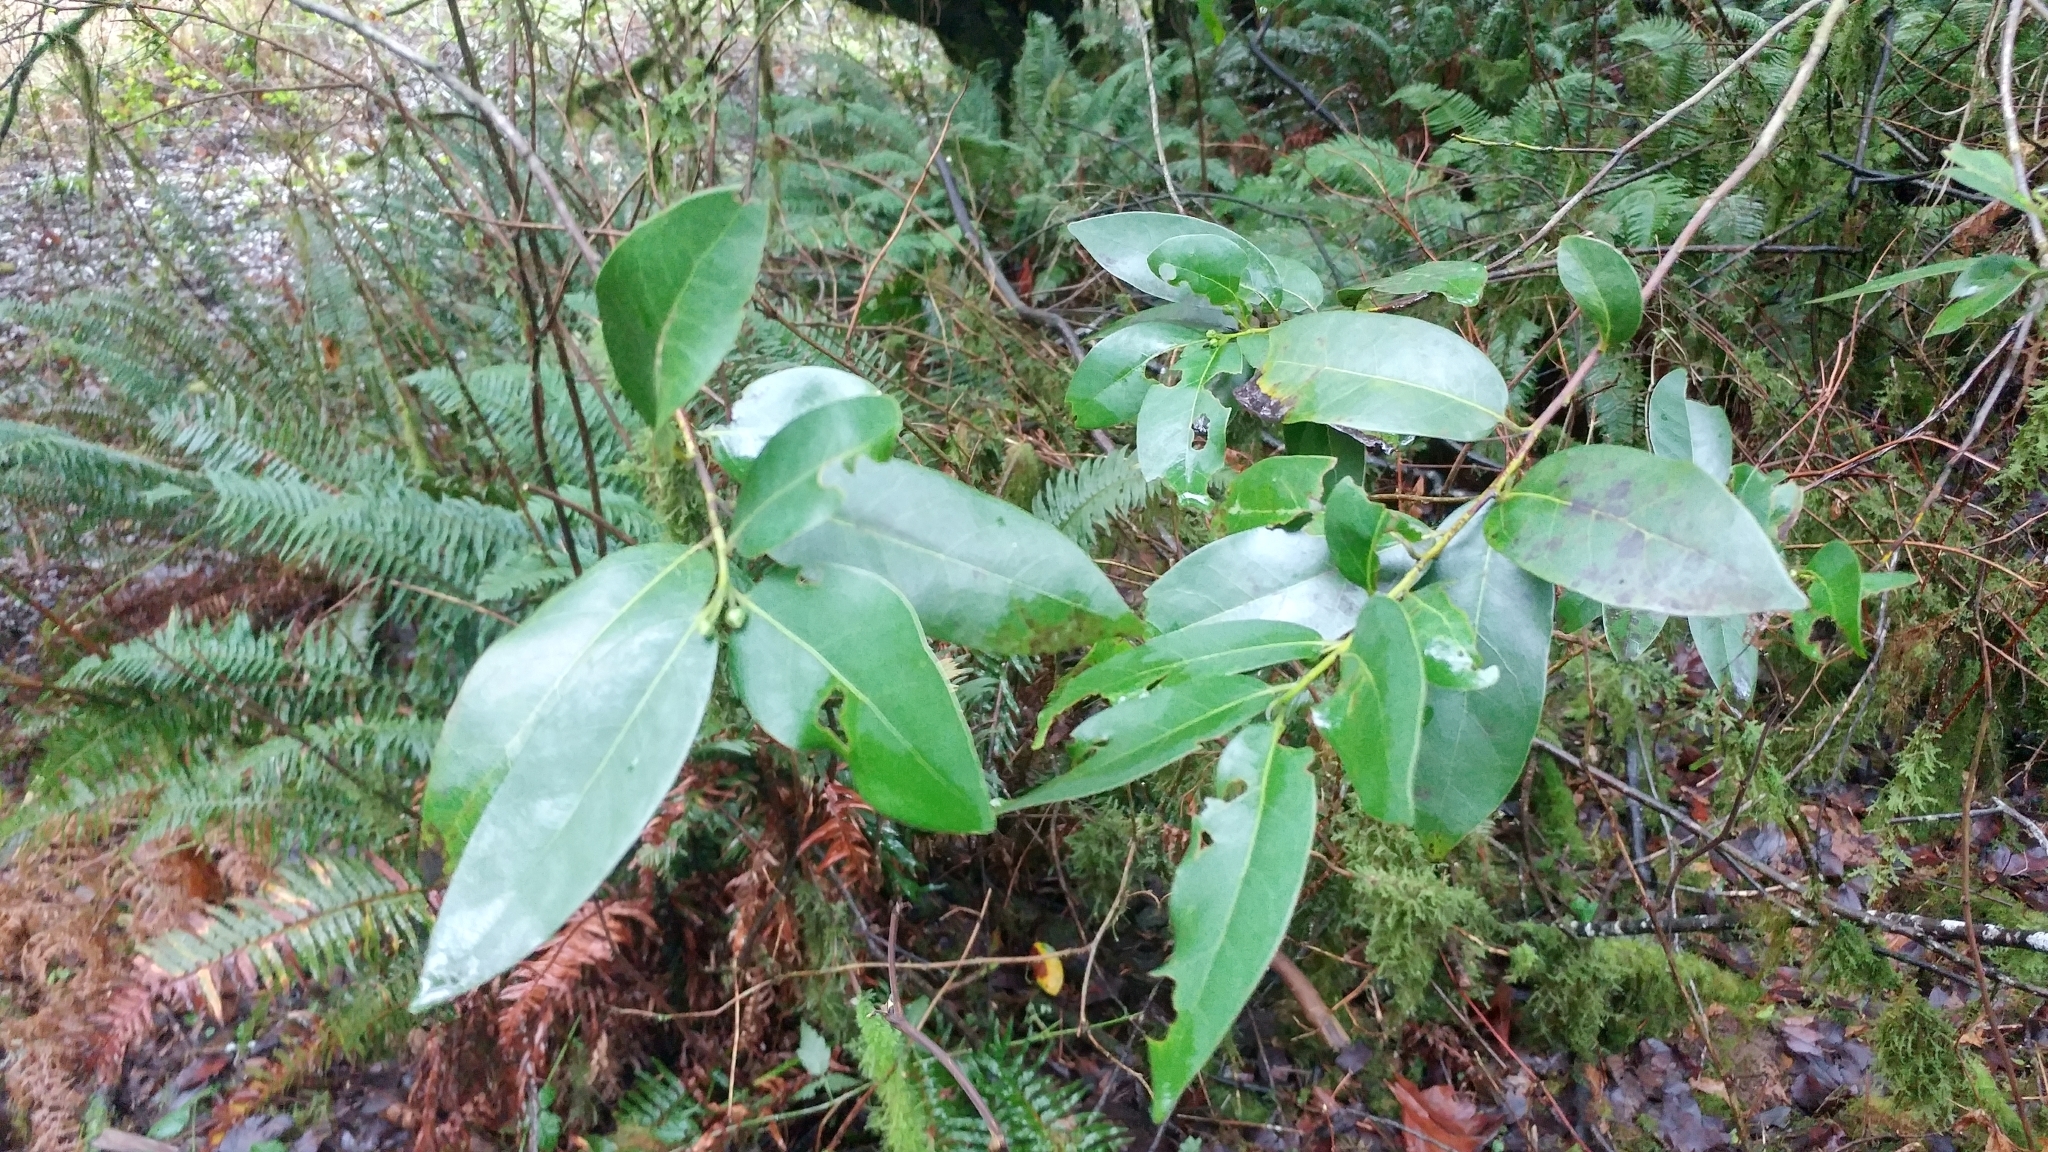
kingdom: Plantae
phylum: Tracheophyta
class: Magnoliopsida
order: Laurales
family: Lauraceae
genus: Umbellularia
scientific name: Umbellularia californica
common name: California bay
